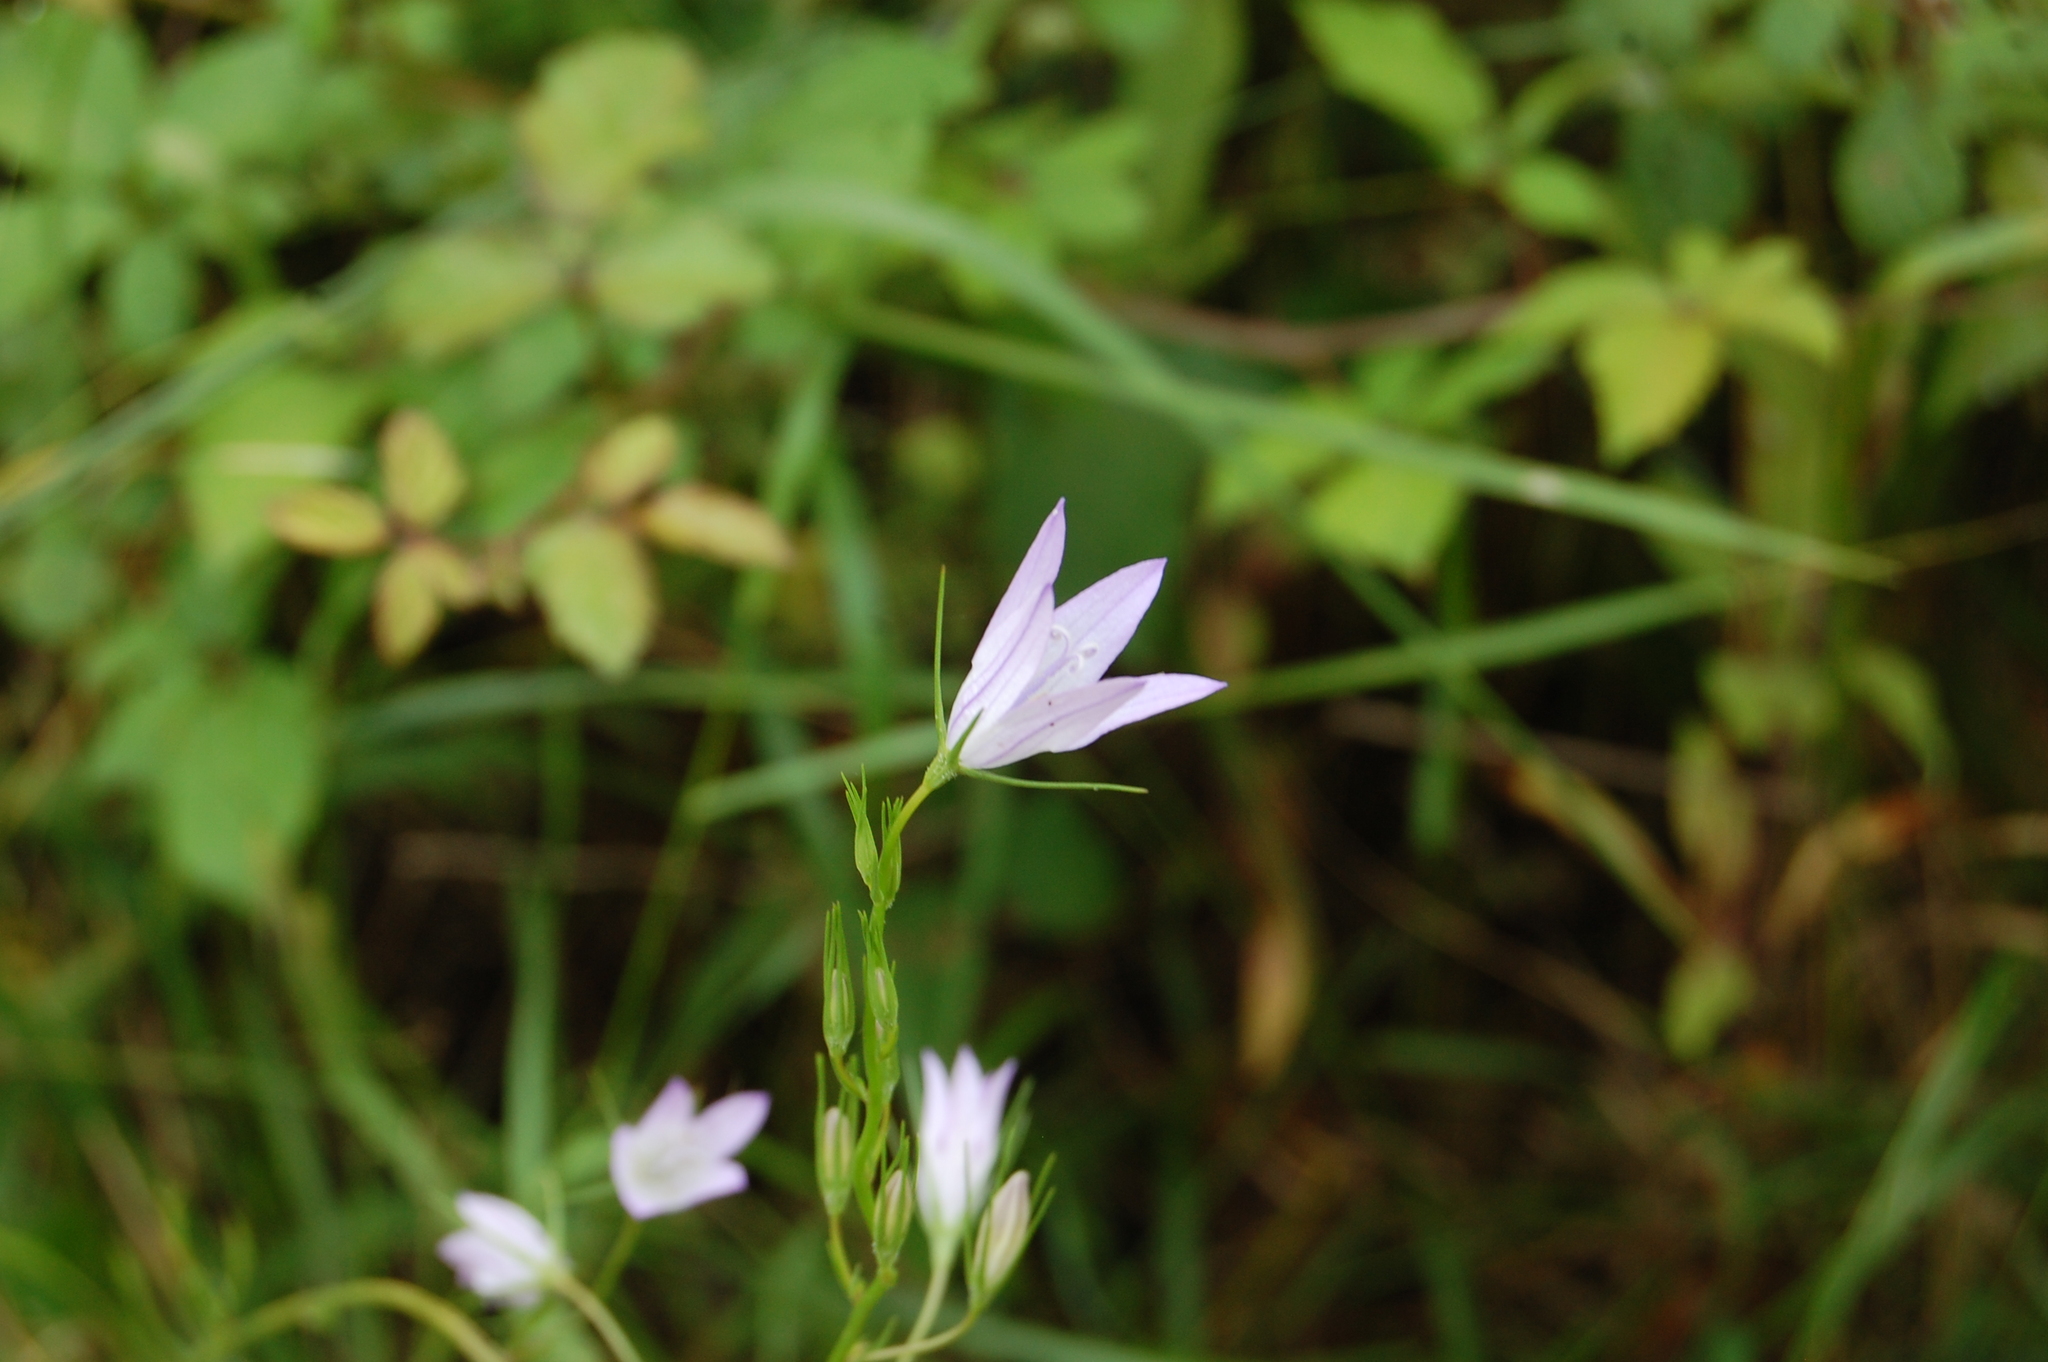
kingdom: Plantae
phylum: Tracheophyta
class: Magnoliopsida
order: Asterales
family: Campanulaceae
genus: Campanula
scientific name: Campanula rapunculus
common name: Rampion bellflower
